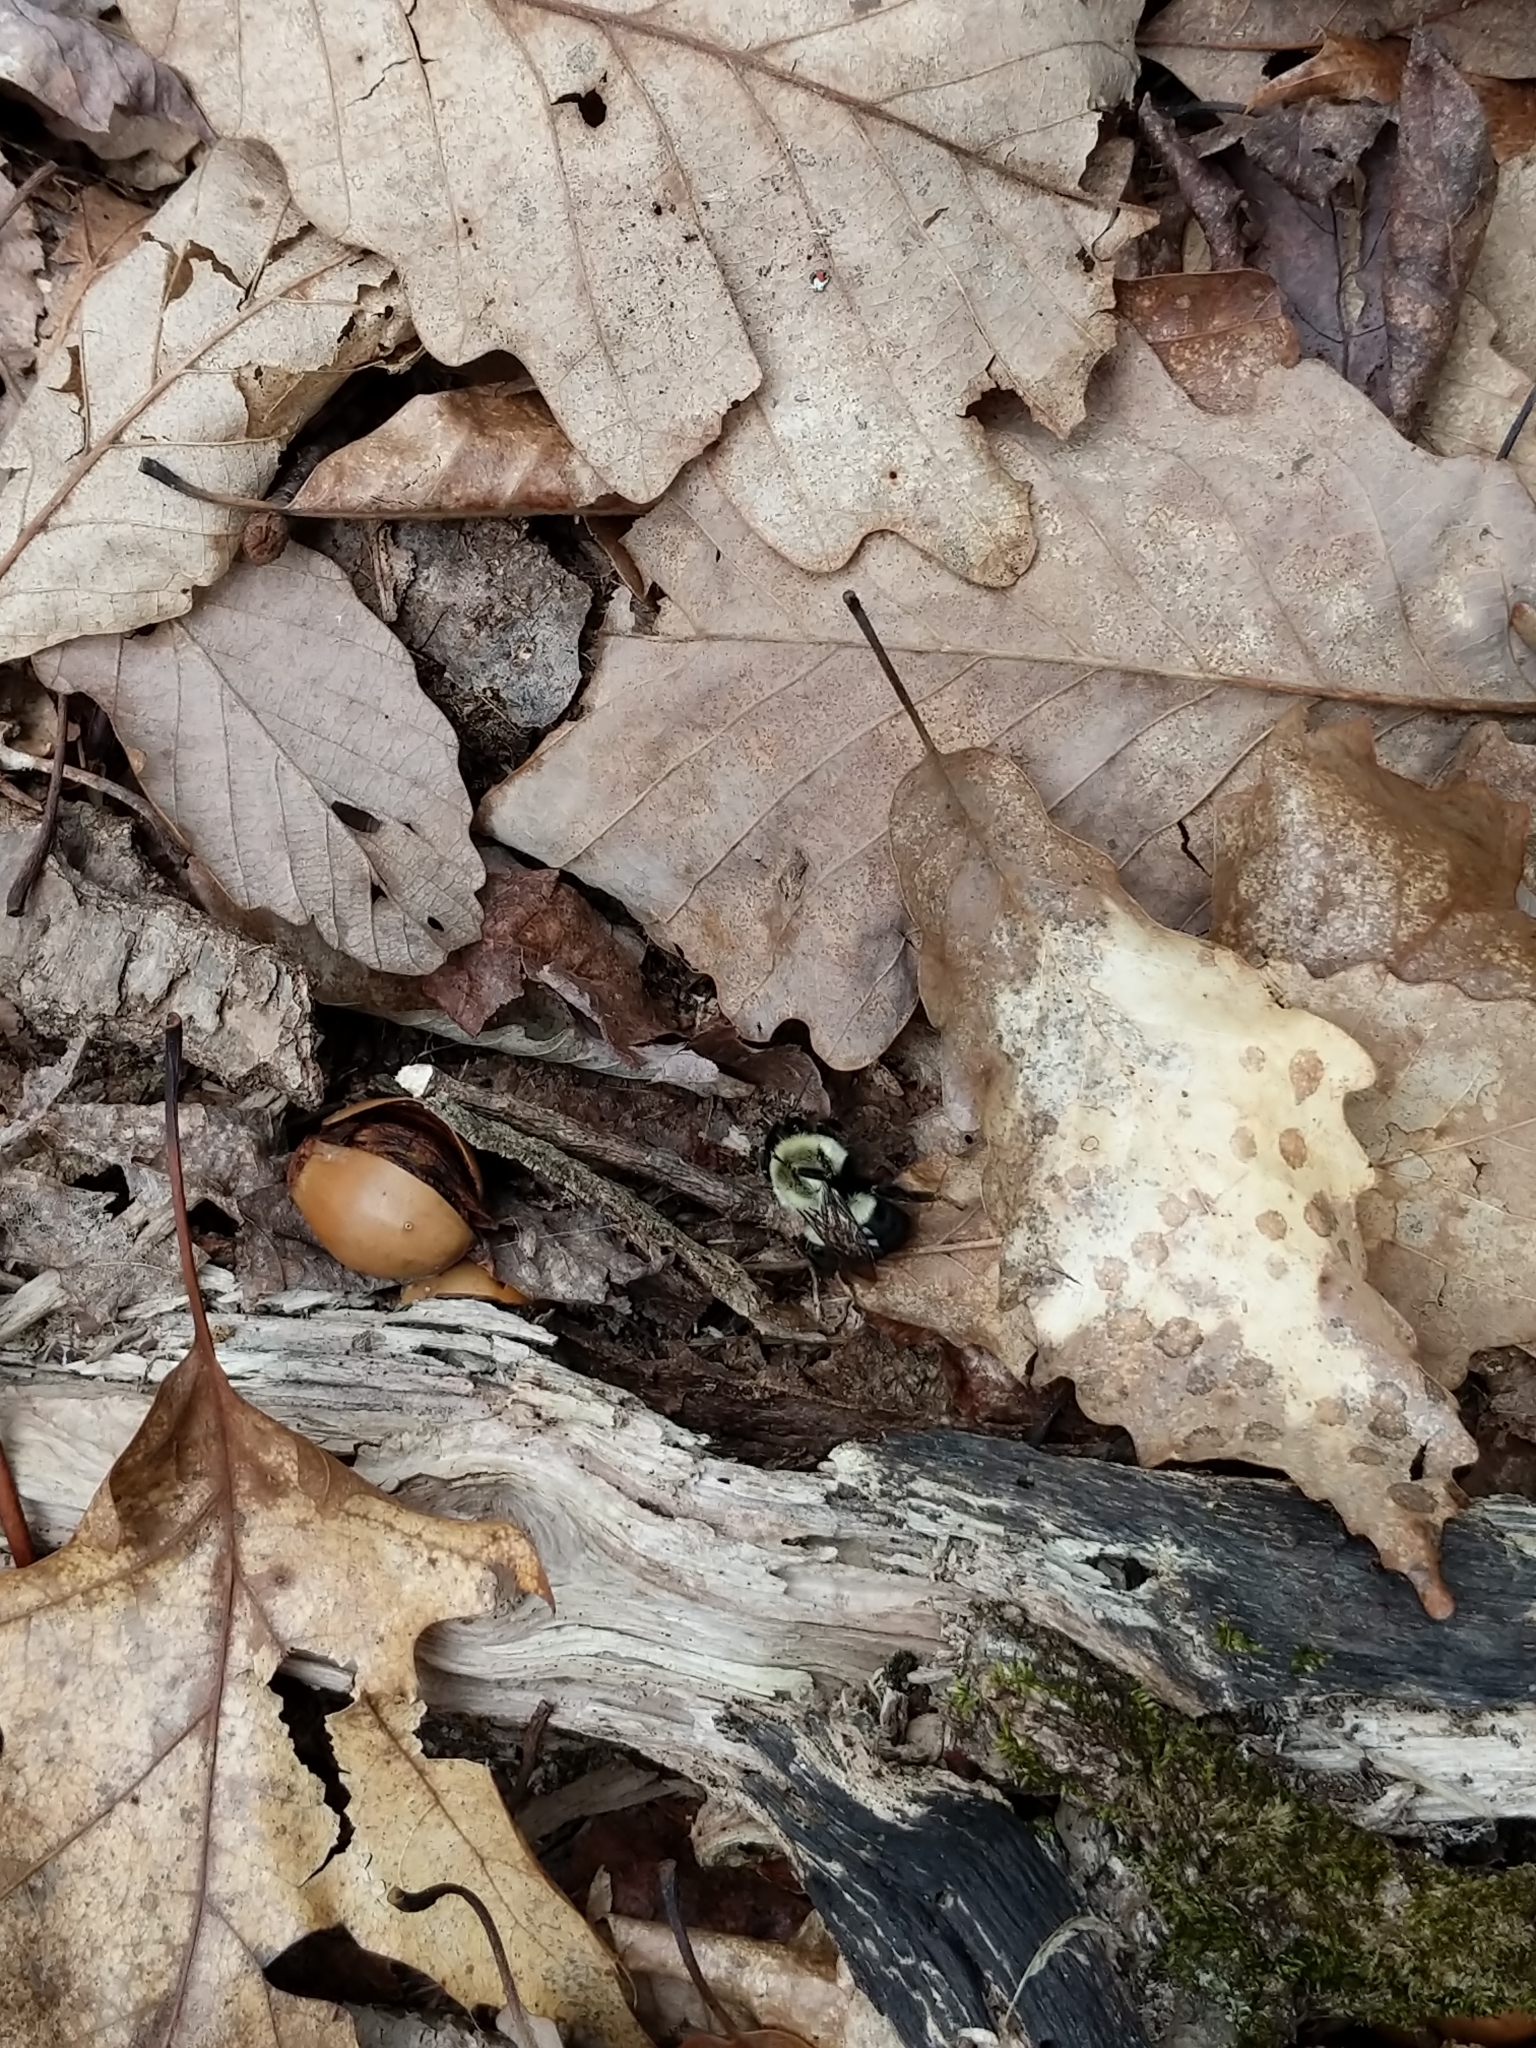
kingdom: Animalia
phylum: Arthropoda
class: Insecta
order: Hymenoptera
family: Apidae
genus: Bombus
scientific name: Bombus impatiens
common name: Common eastern bumble bee
